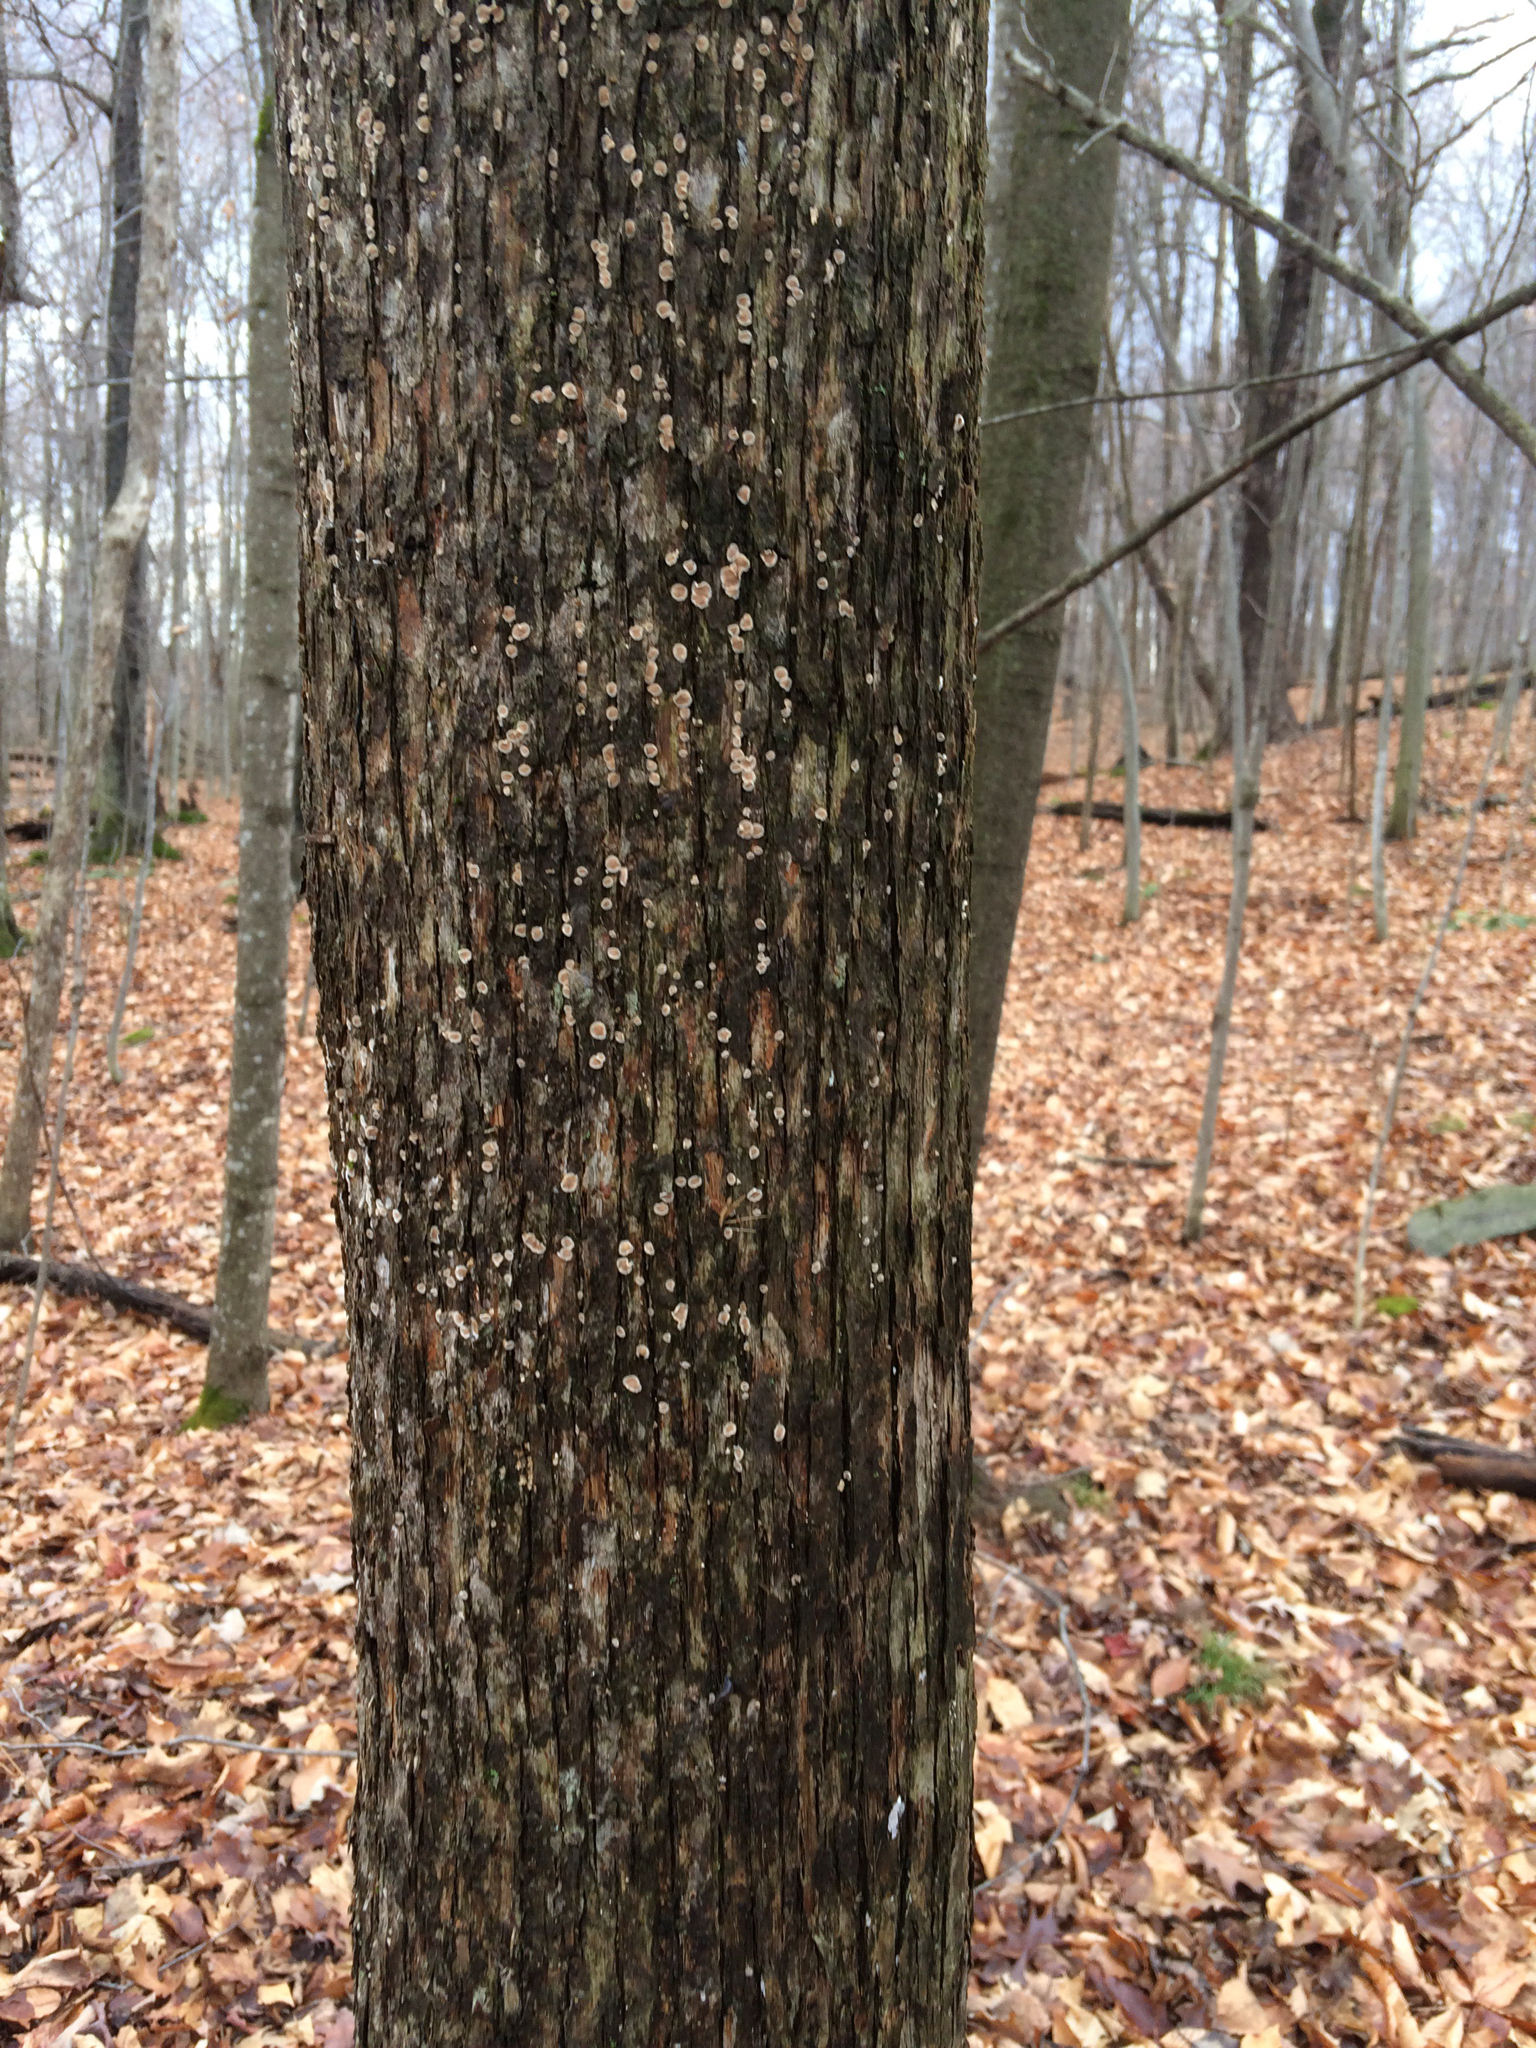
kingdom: Plantae
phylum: Tracheophyta
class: Magnoliopsida
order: Fagales
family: Betulaceae
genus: Ostrya
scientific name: Ostrya virginiana
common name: Ironwood
